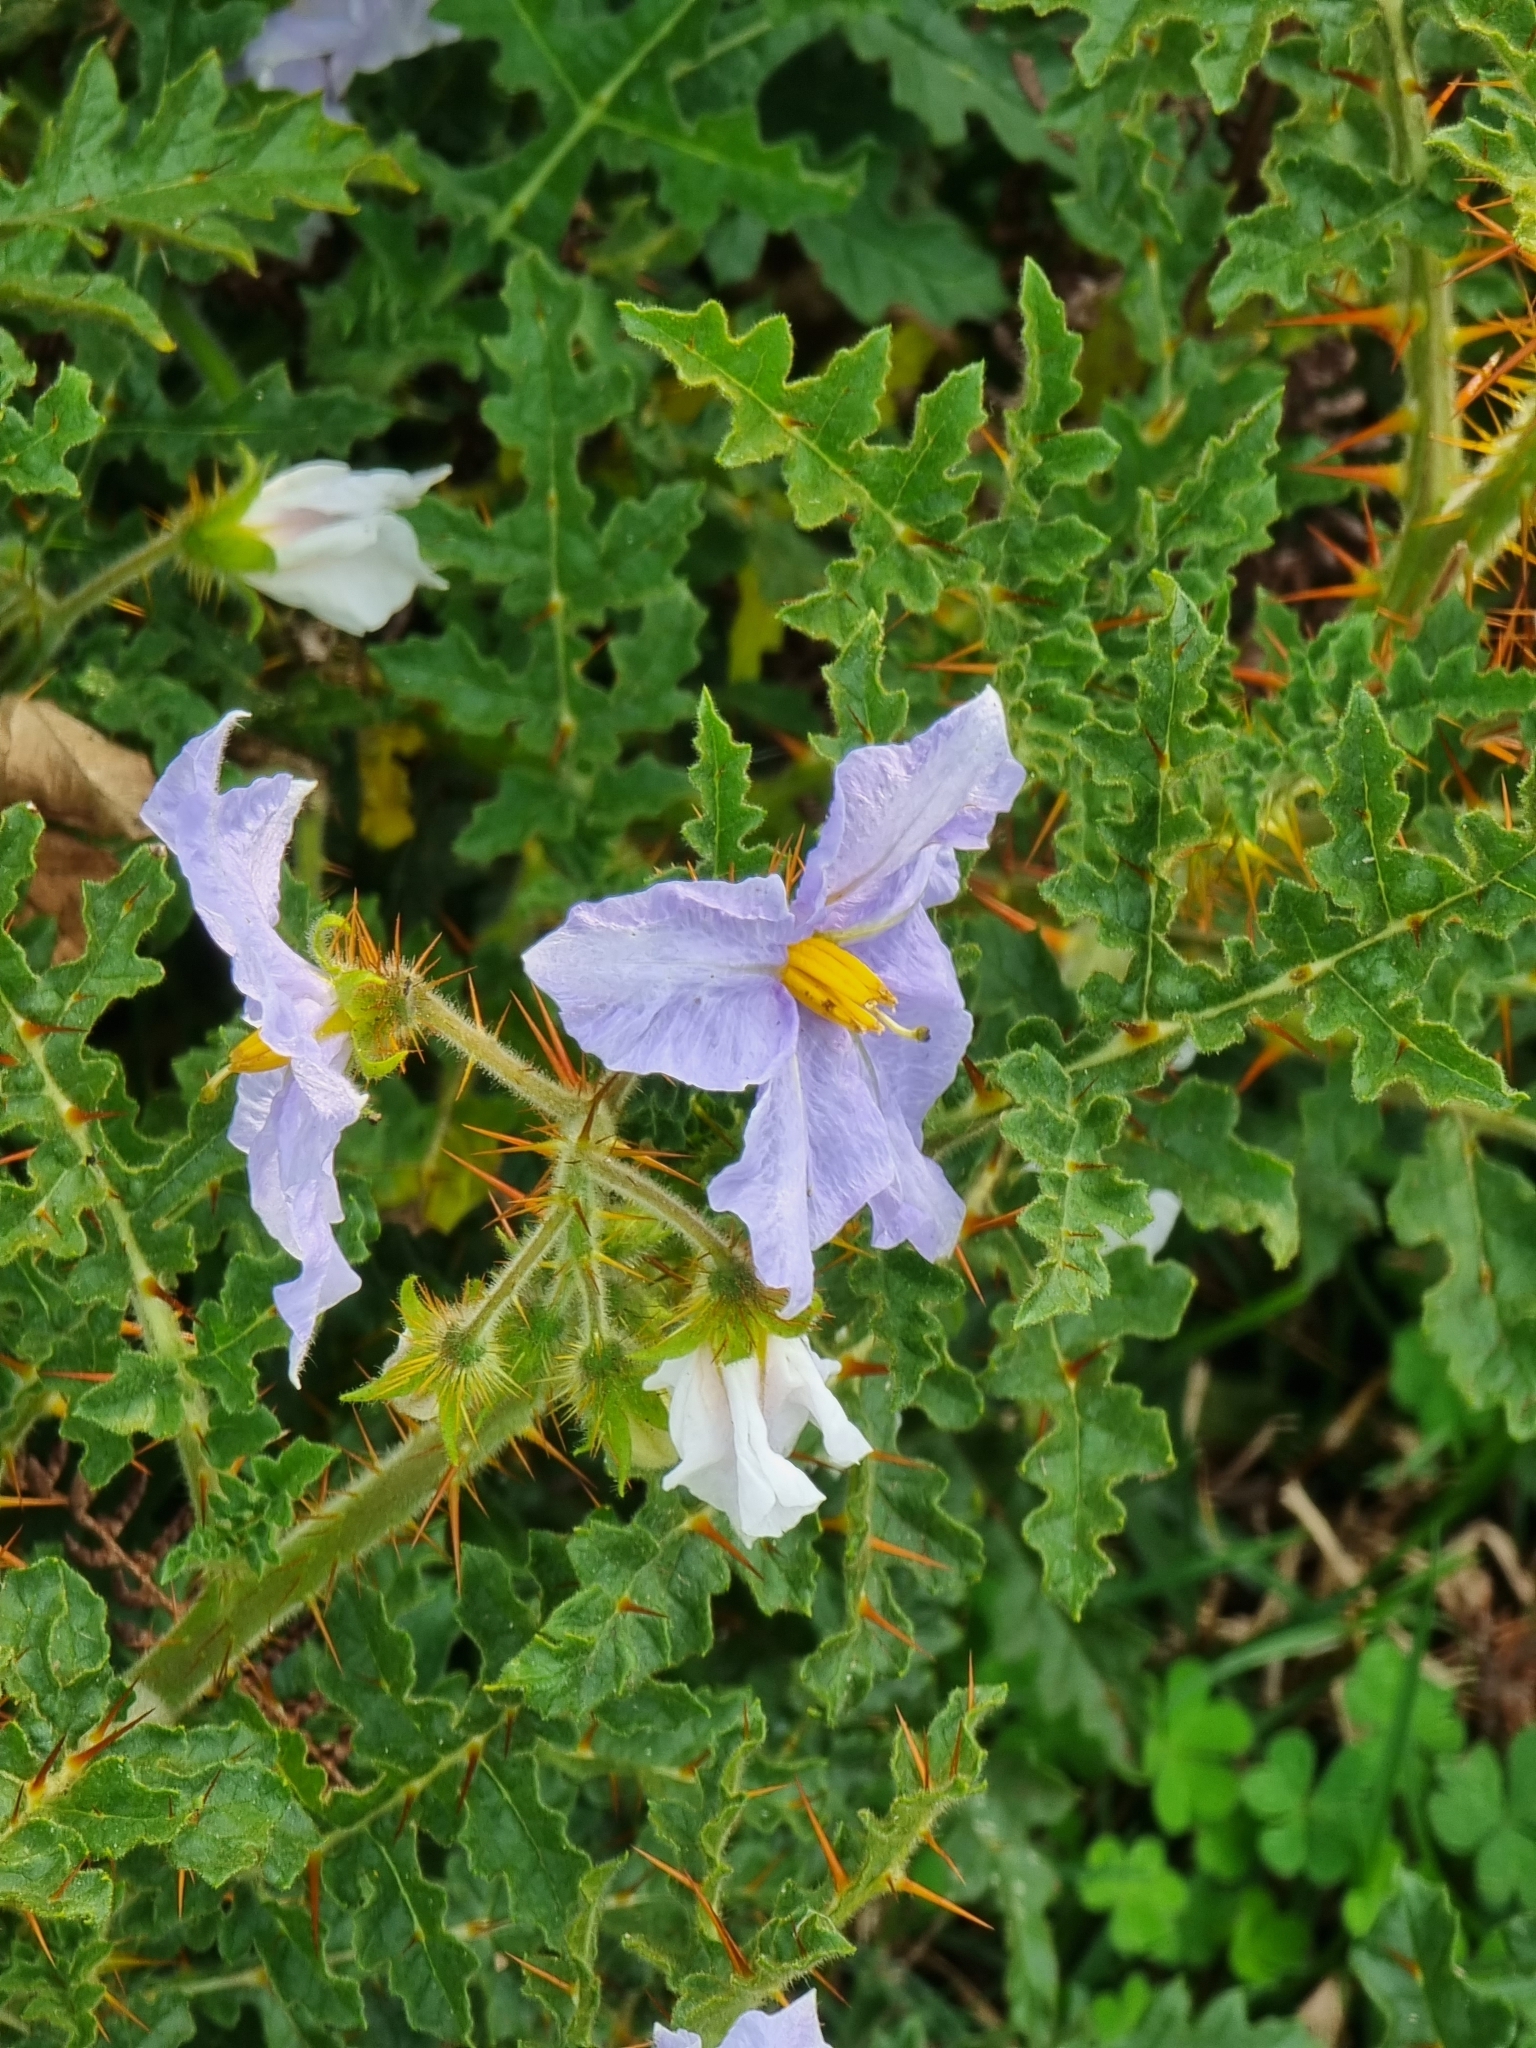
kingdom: Plantae
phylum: Tracheophyta
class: Magnoliopsida
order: Solanales
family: Solanaceae
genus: Solanum
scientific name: Solanum sisymbriifolium
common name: Red buffalo-bur
